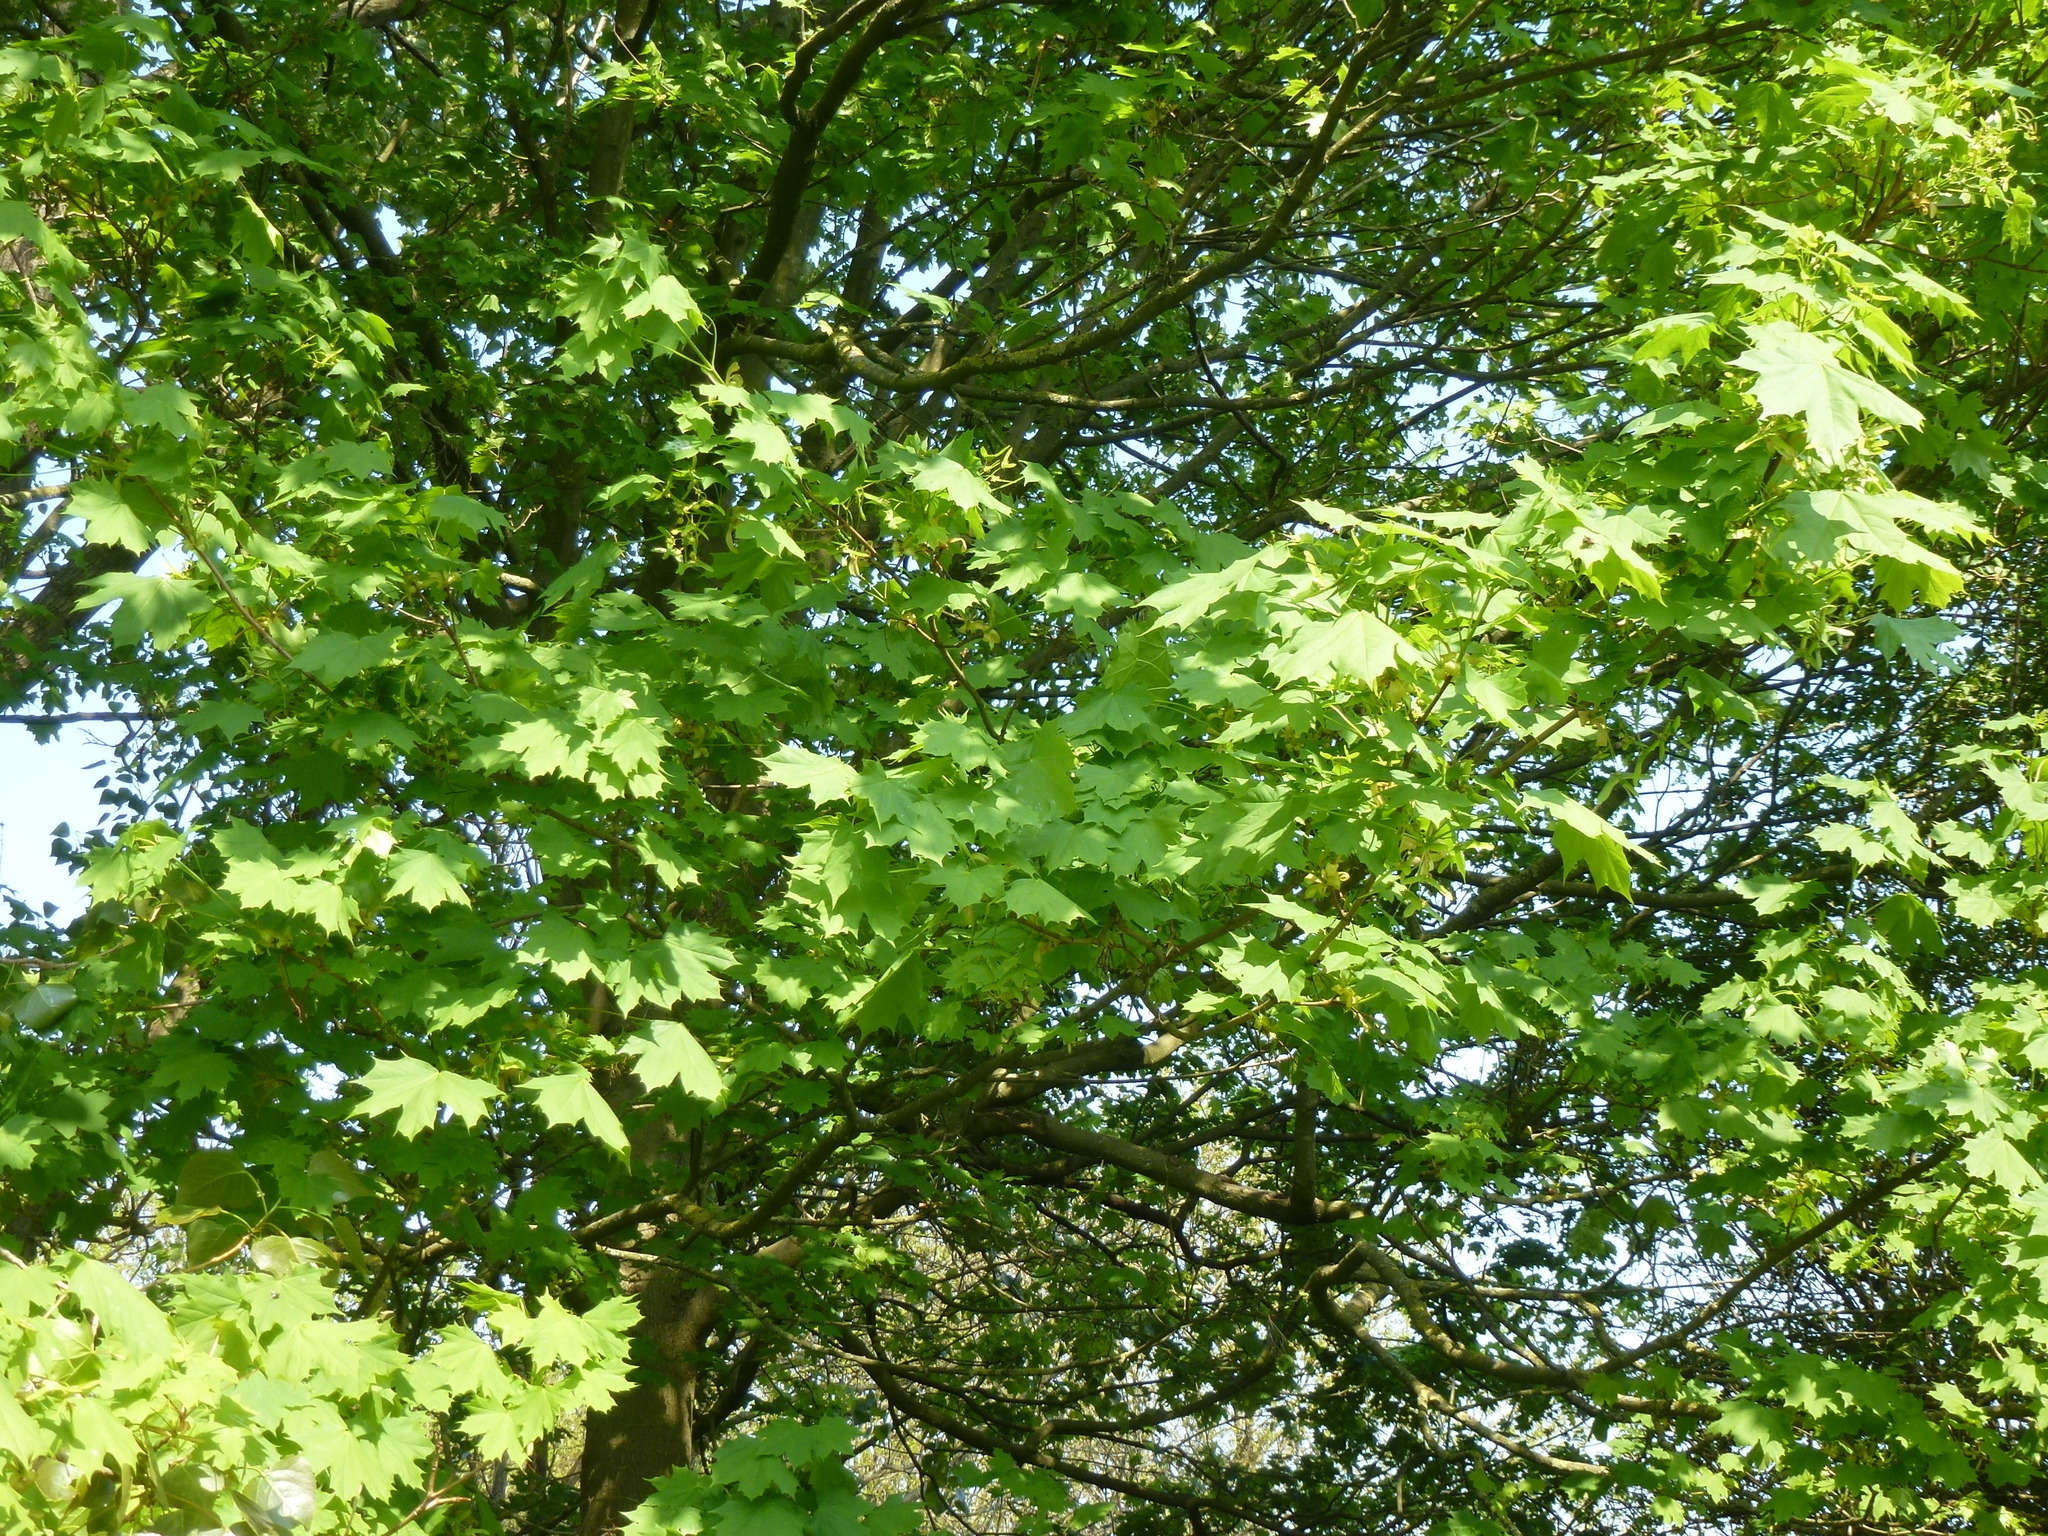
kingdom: Plantae
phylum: Tracheophyta
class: Magnoliopsida
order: Sapindales
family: Sapindaceae
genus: Acer
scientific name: Acer platanoides
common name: Norway maple
